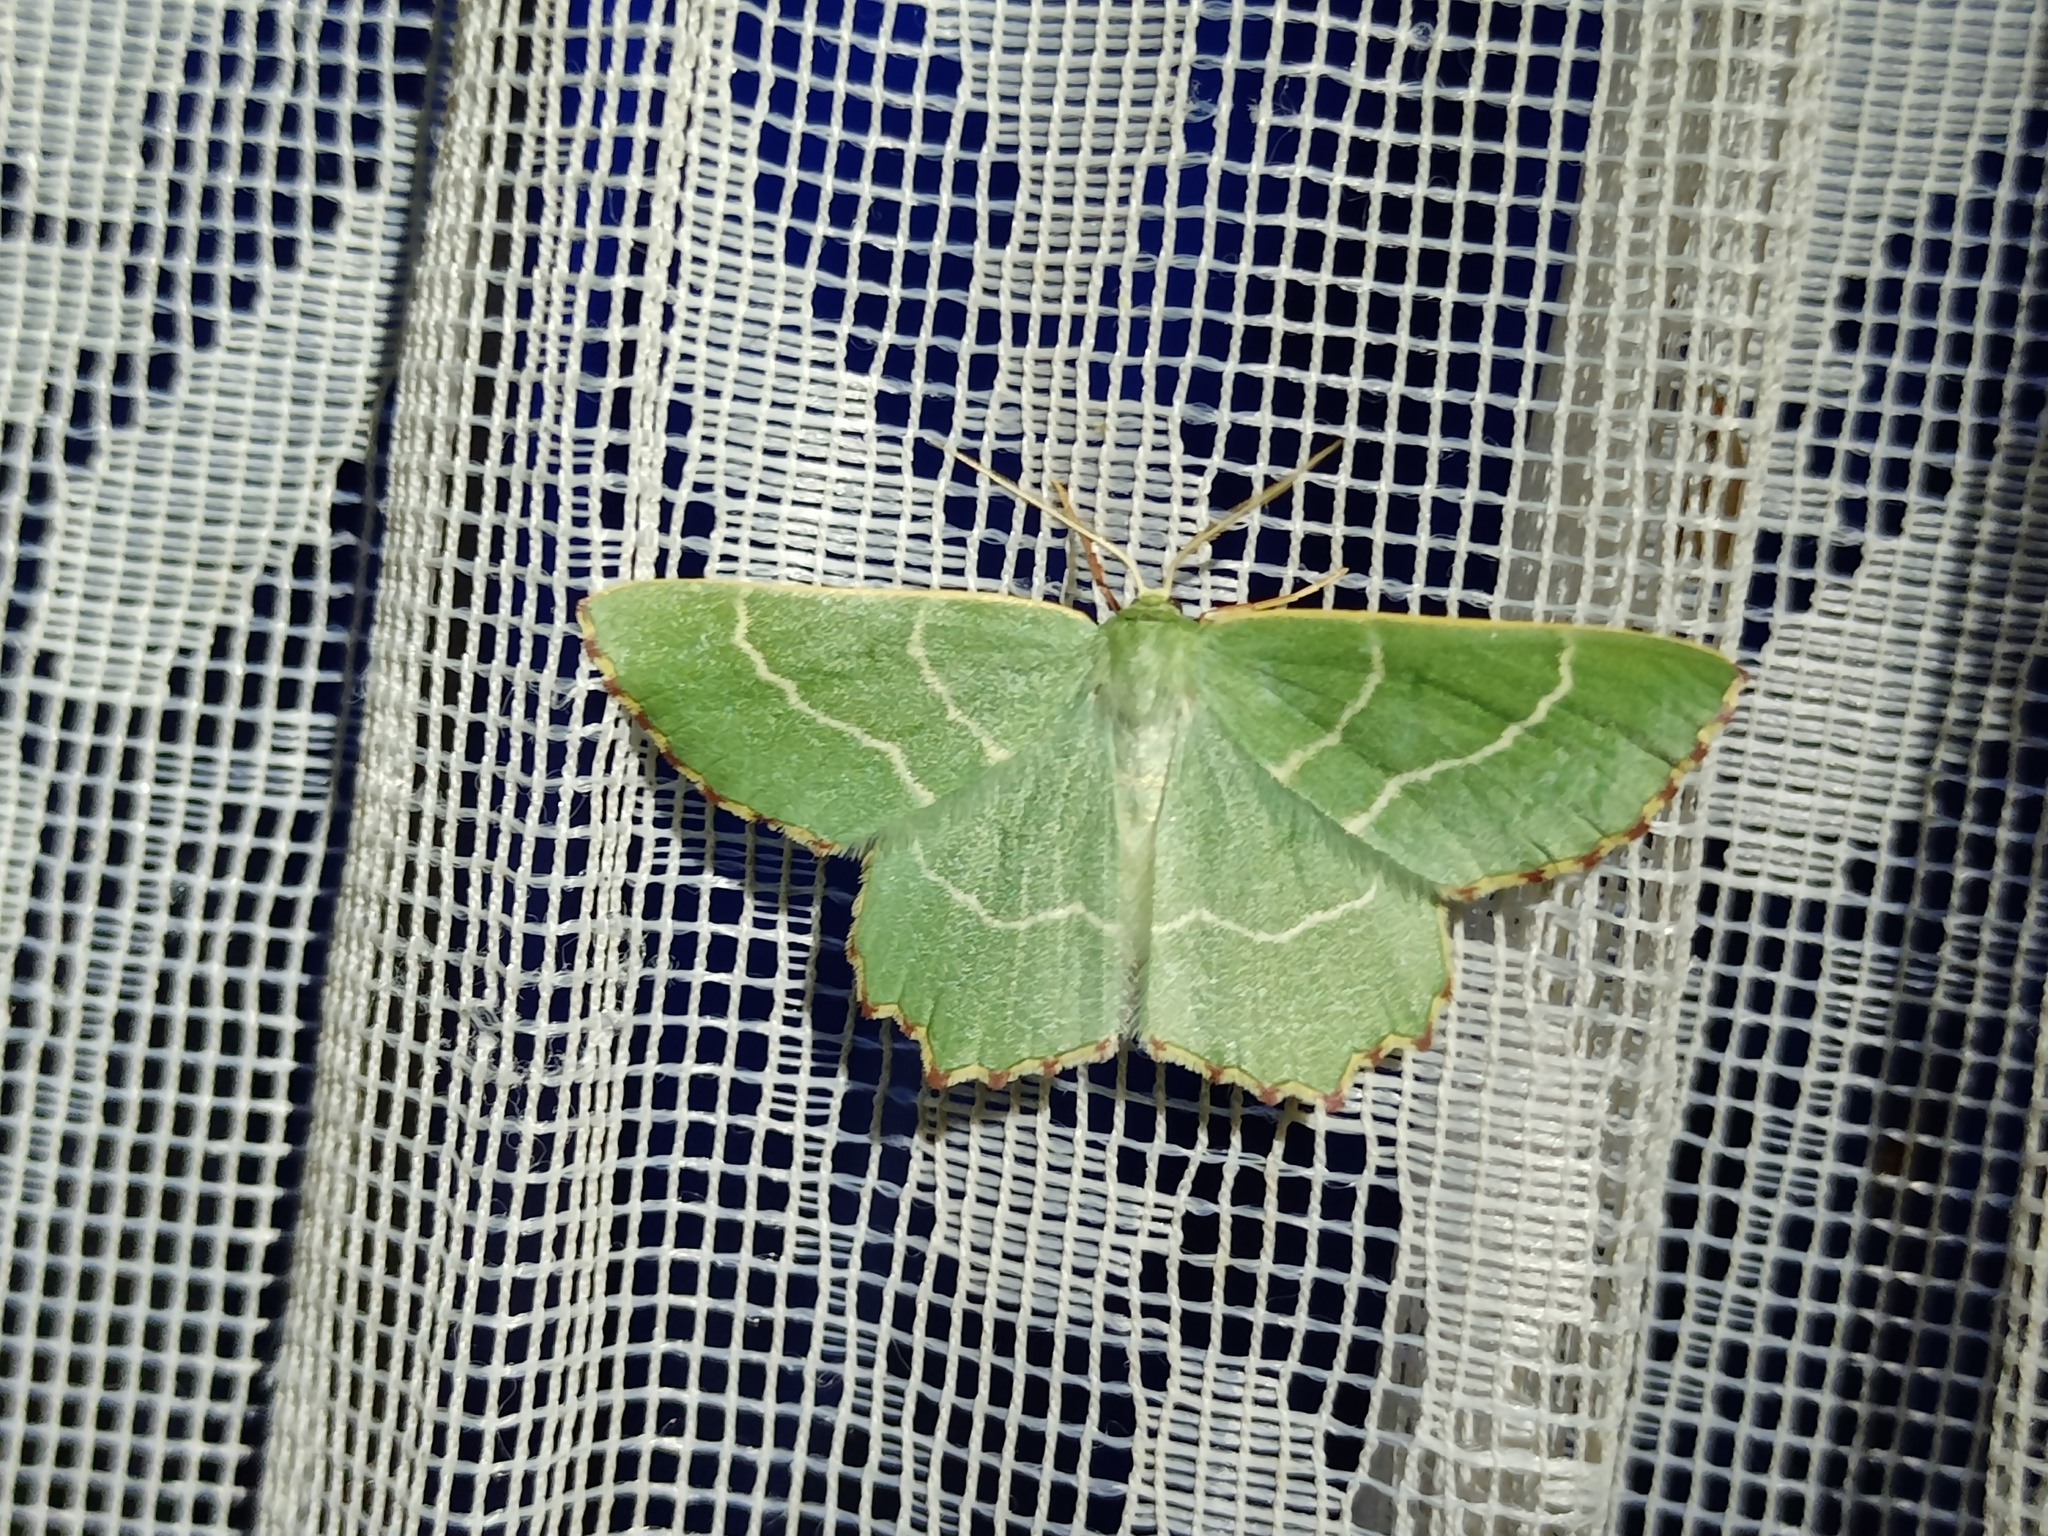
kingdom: Animalia
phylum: Arthropoda
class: Insecta
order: Lepidoptera
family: Geometridae
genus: Thalera
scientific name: Thalera fimbrialis
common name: Sussex emerald
